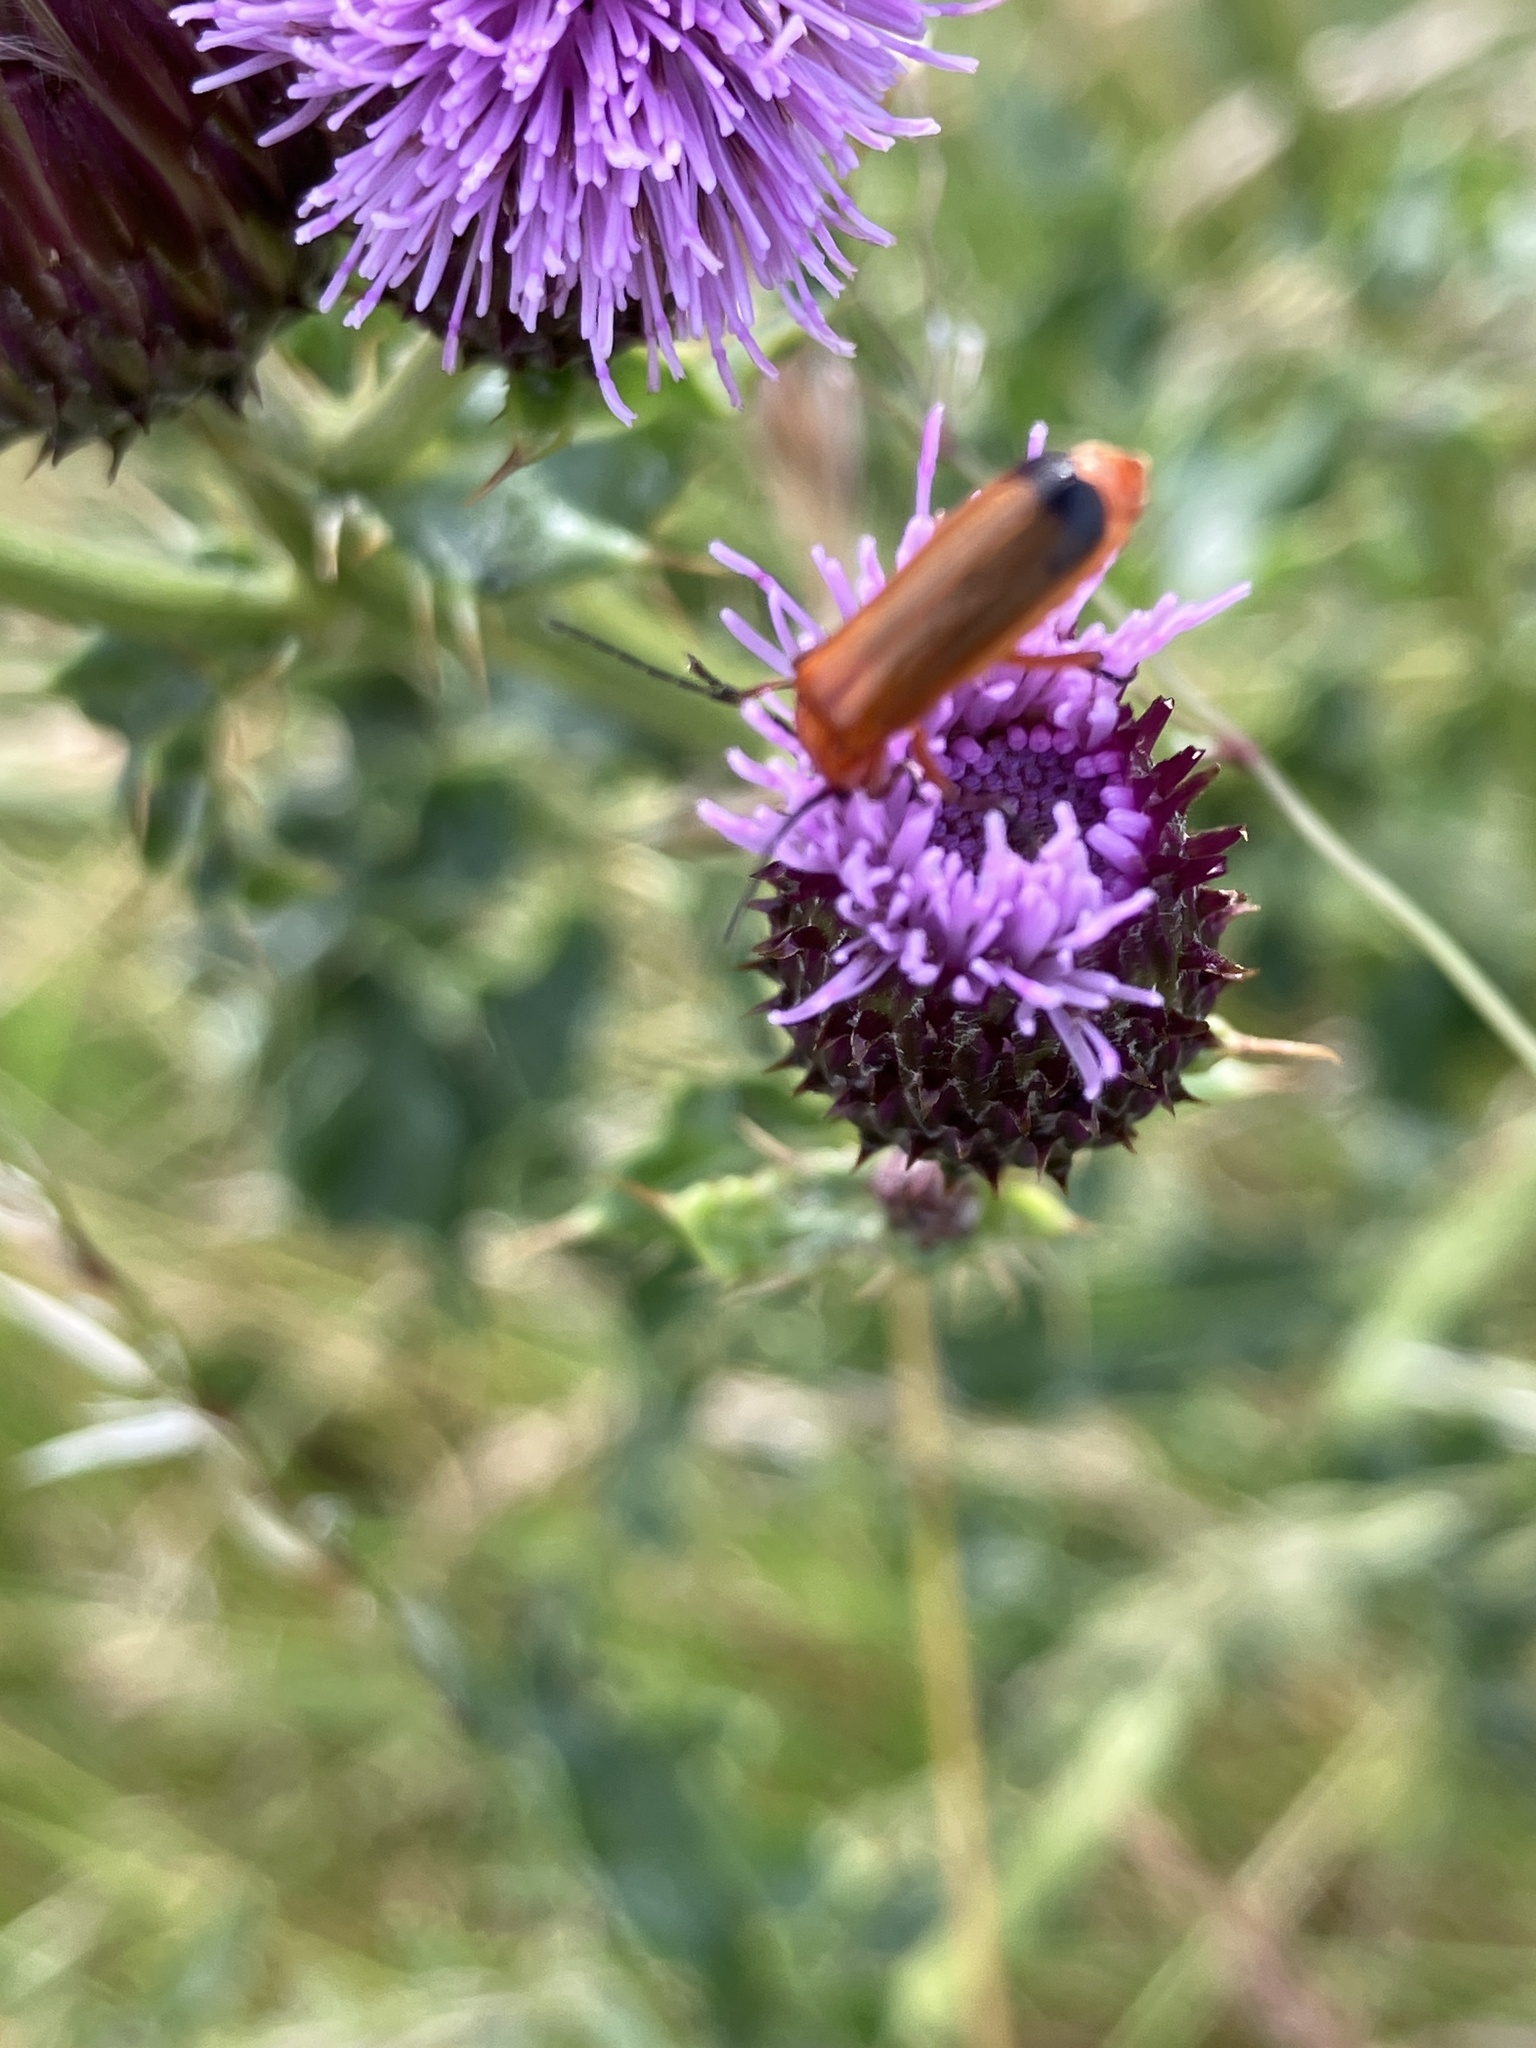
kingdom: Animalia
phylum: Arthropoda
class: Insecta
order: Coleoptera
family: Cantharidae
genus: Rhagonycha
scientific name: Rhagonycha fulva
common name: Common red soldier beetle
